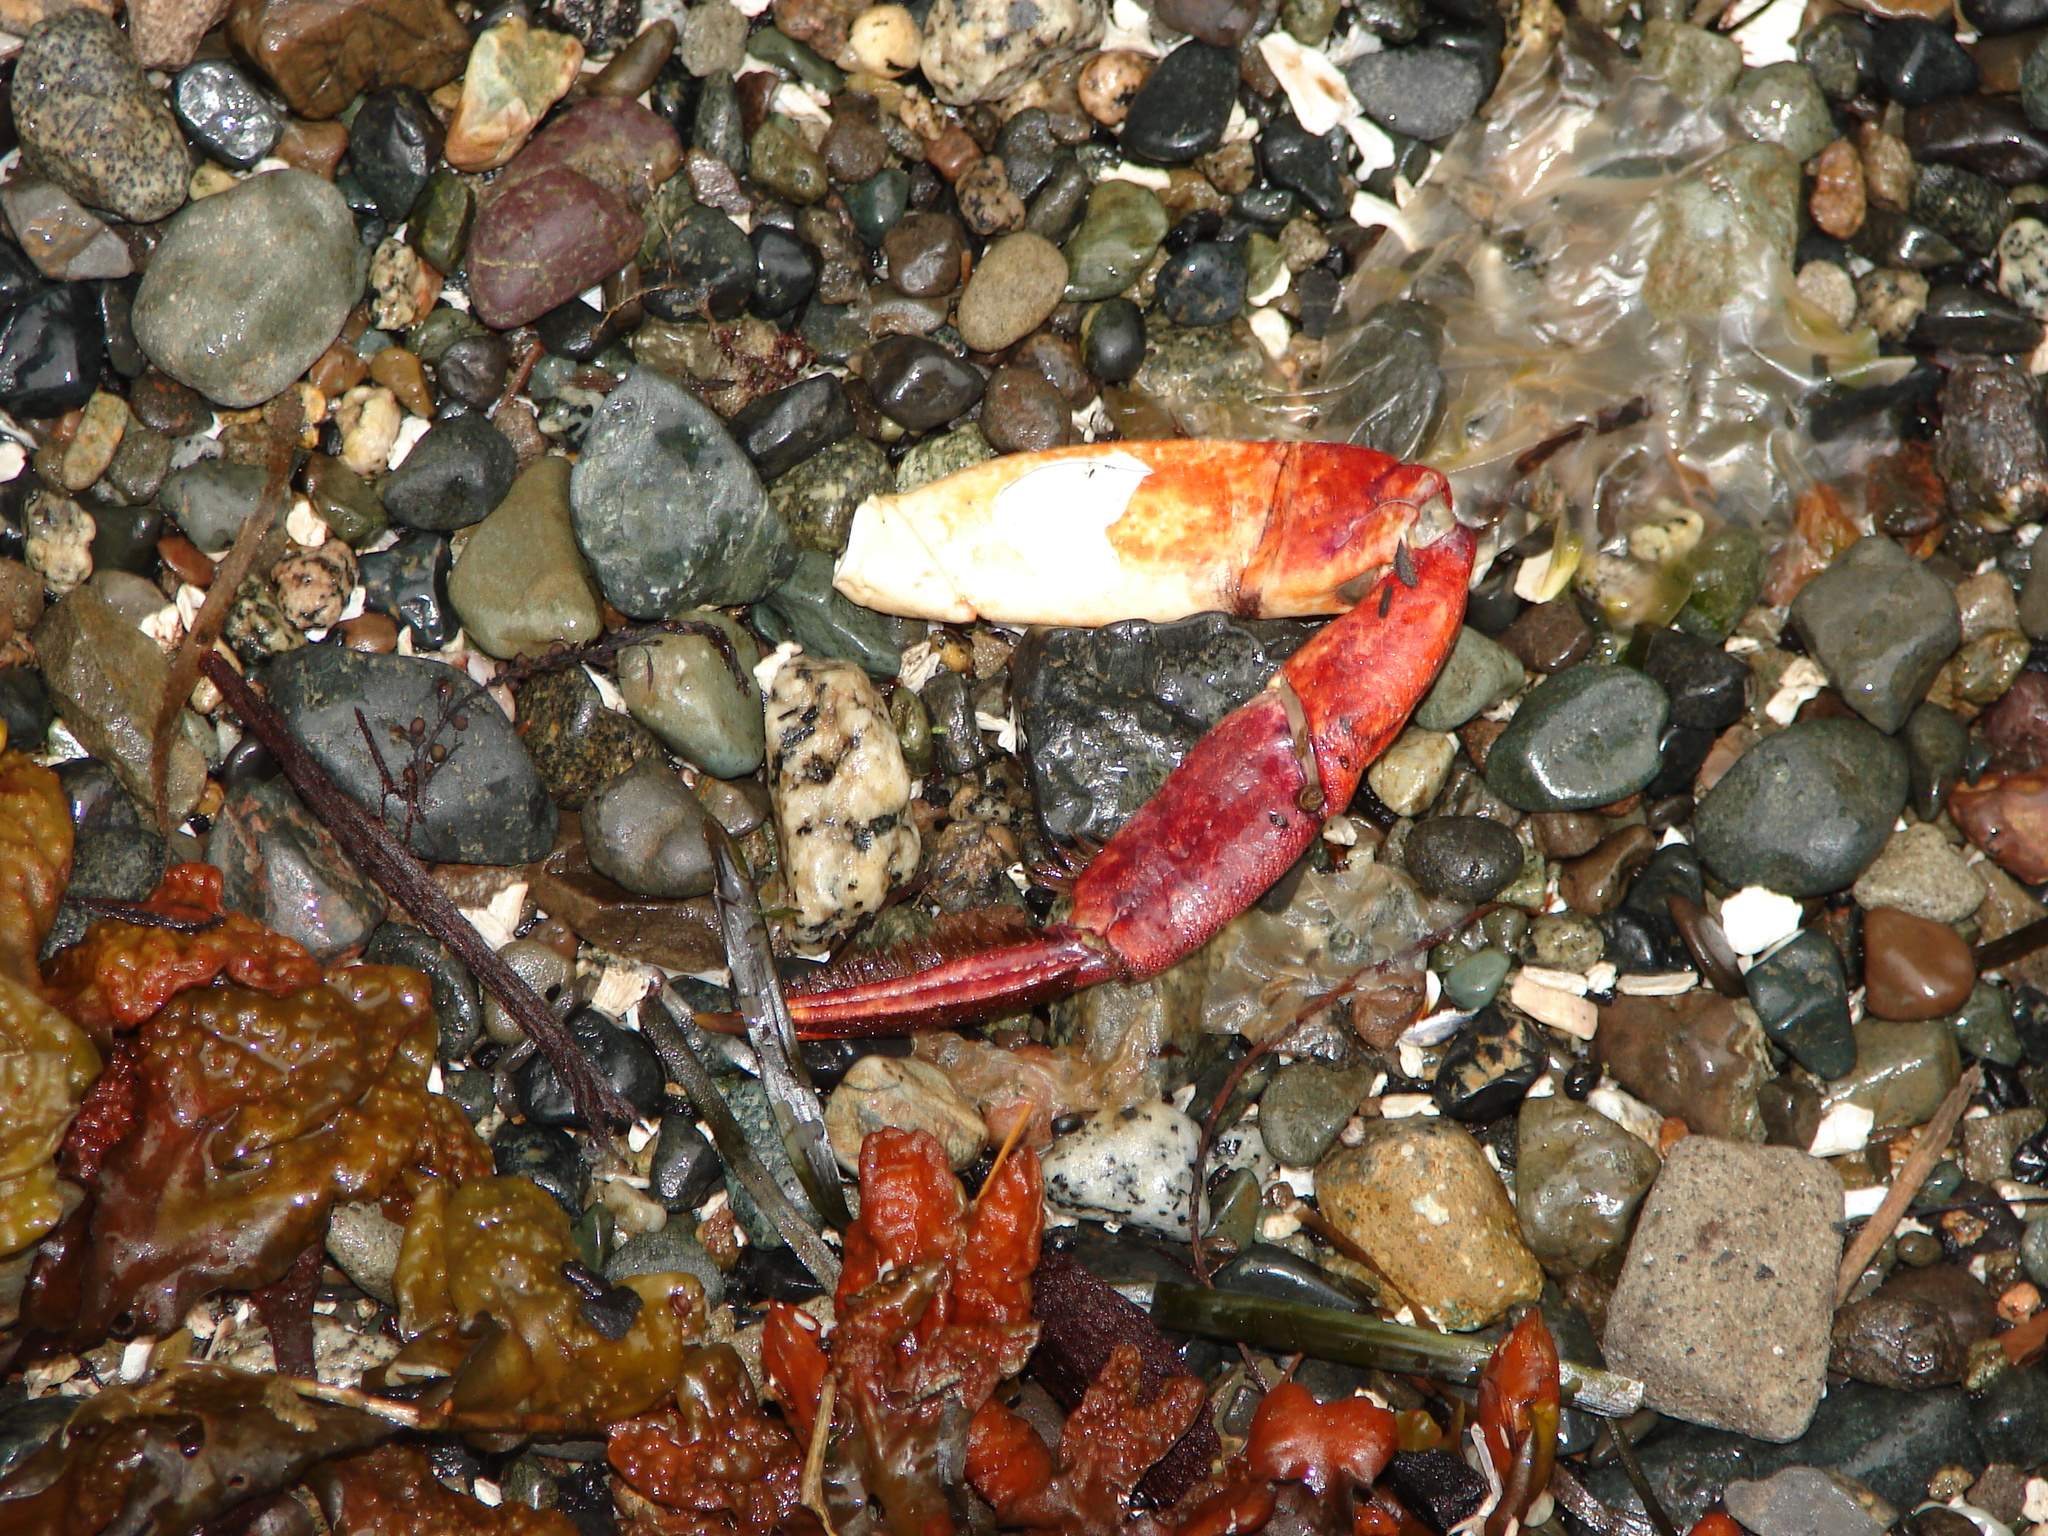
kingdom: Animalia
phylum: Arthropoda
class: Malacostraca
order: Decapoda
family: Cancridae
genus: Cancer
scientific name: Cancer productus
